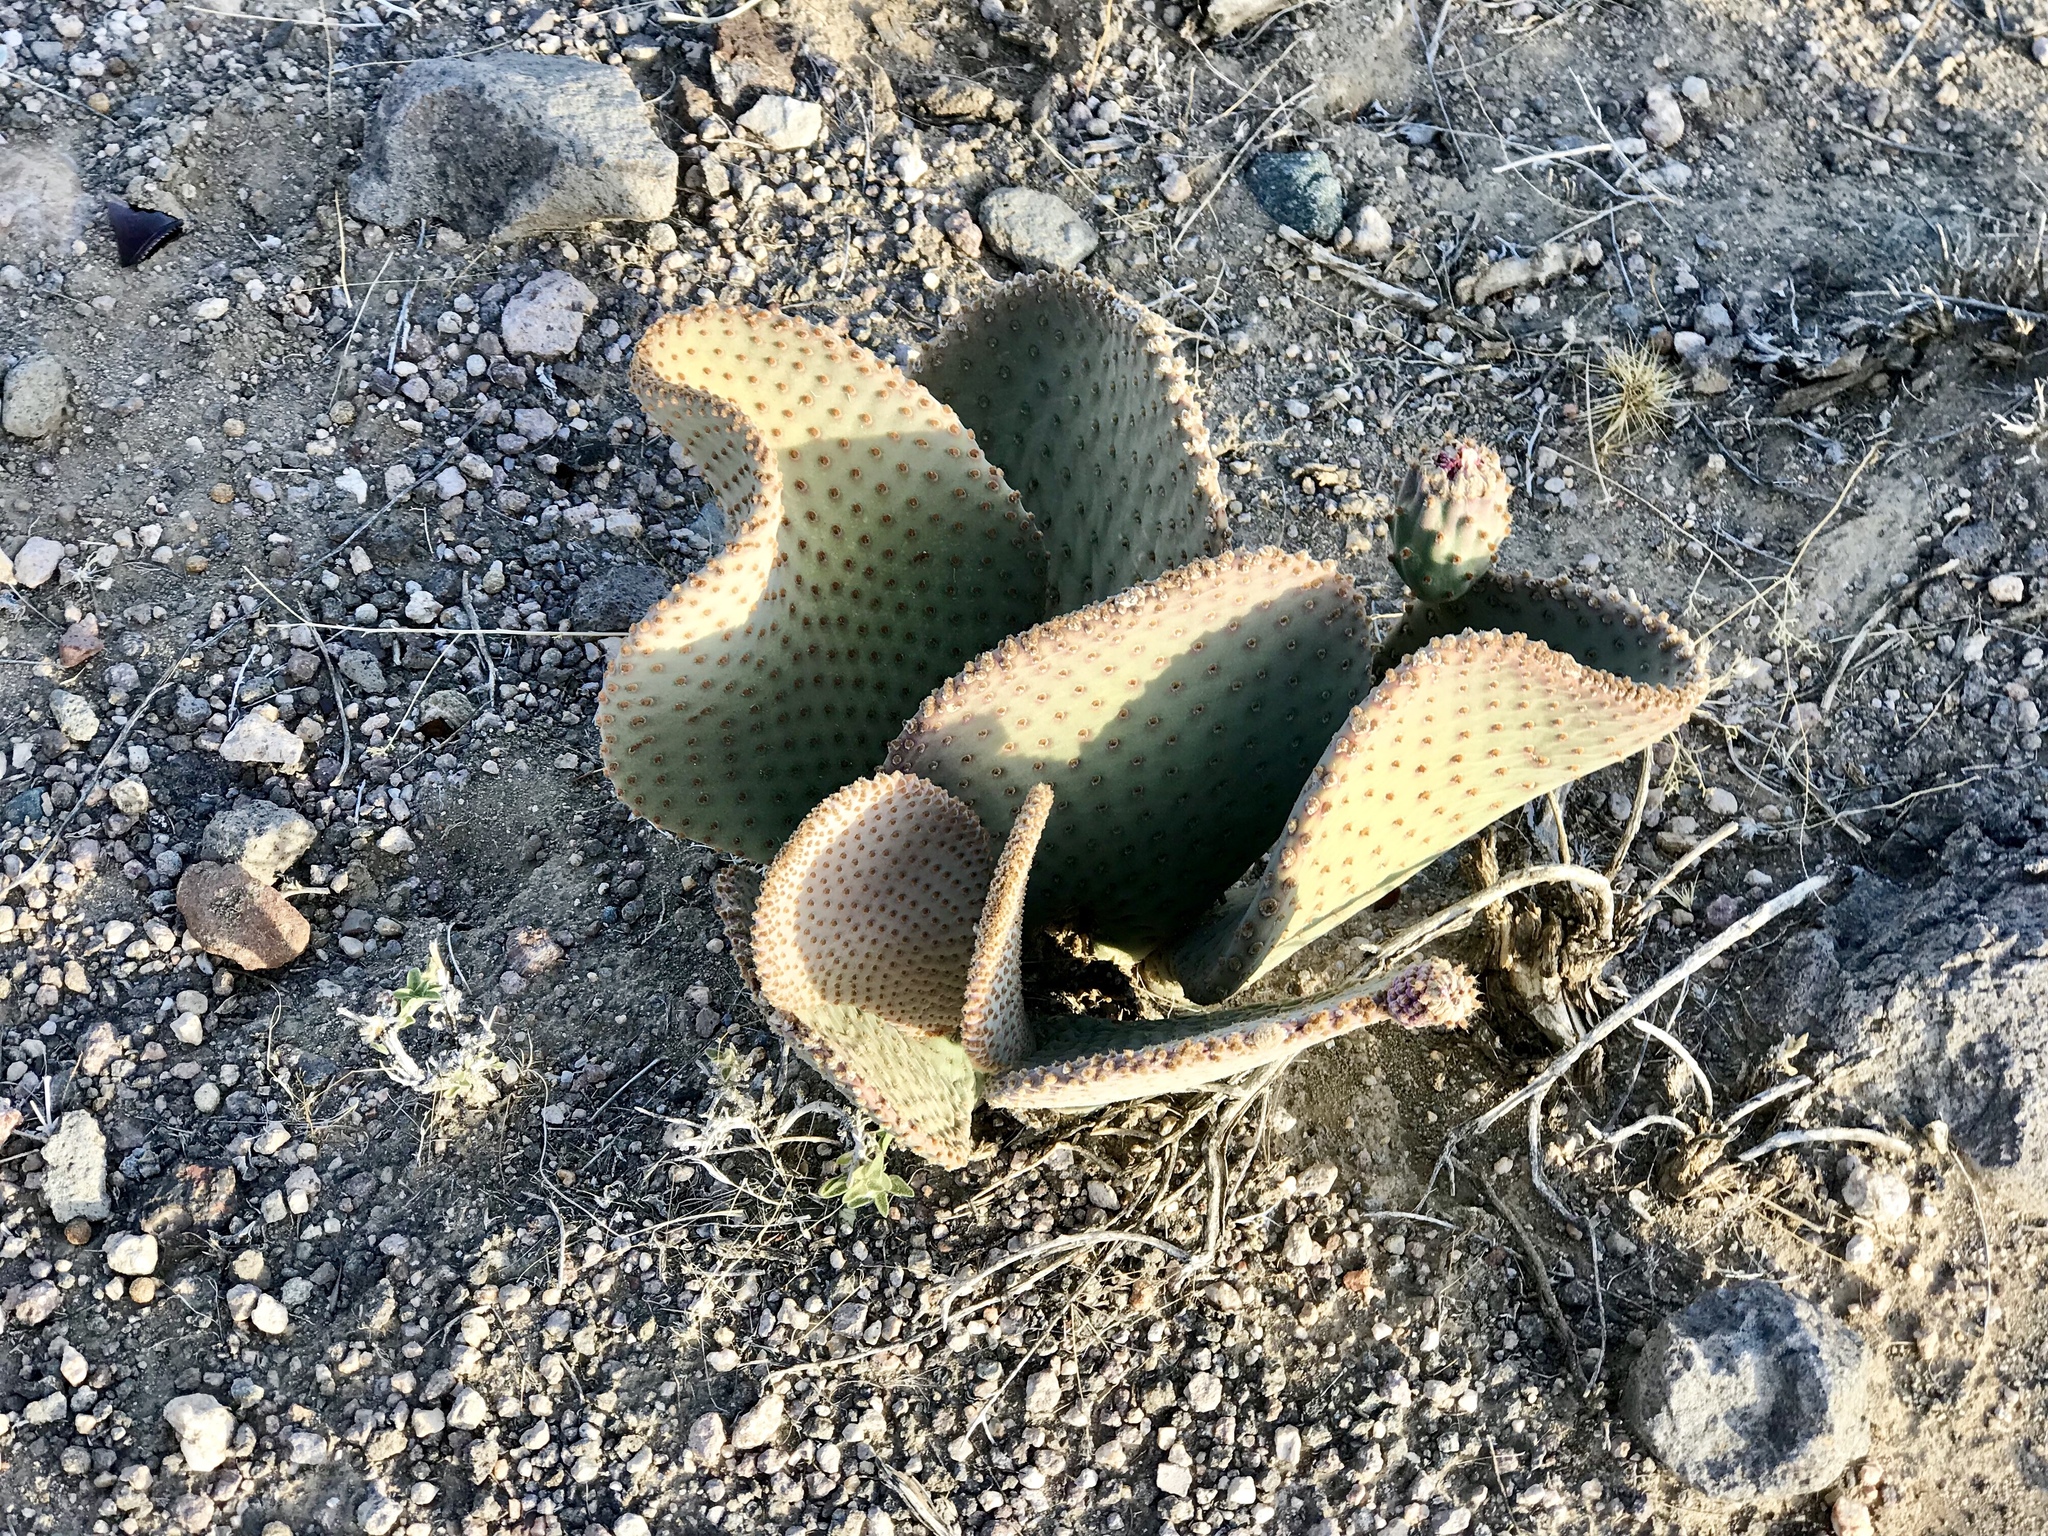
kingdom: Plantae
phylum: Tracheophyta
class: Magnoliopsida
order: Caryophyllales
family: Cactaceae
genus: Opuntia
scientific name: Opuntia basilaris
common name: Beavertail prickly-pear
